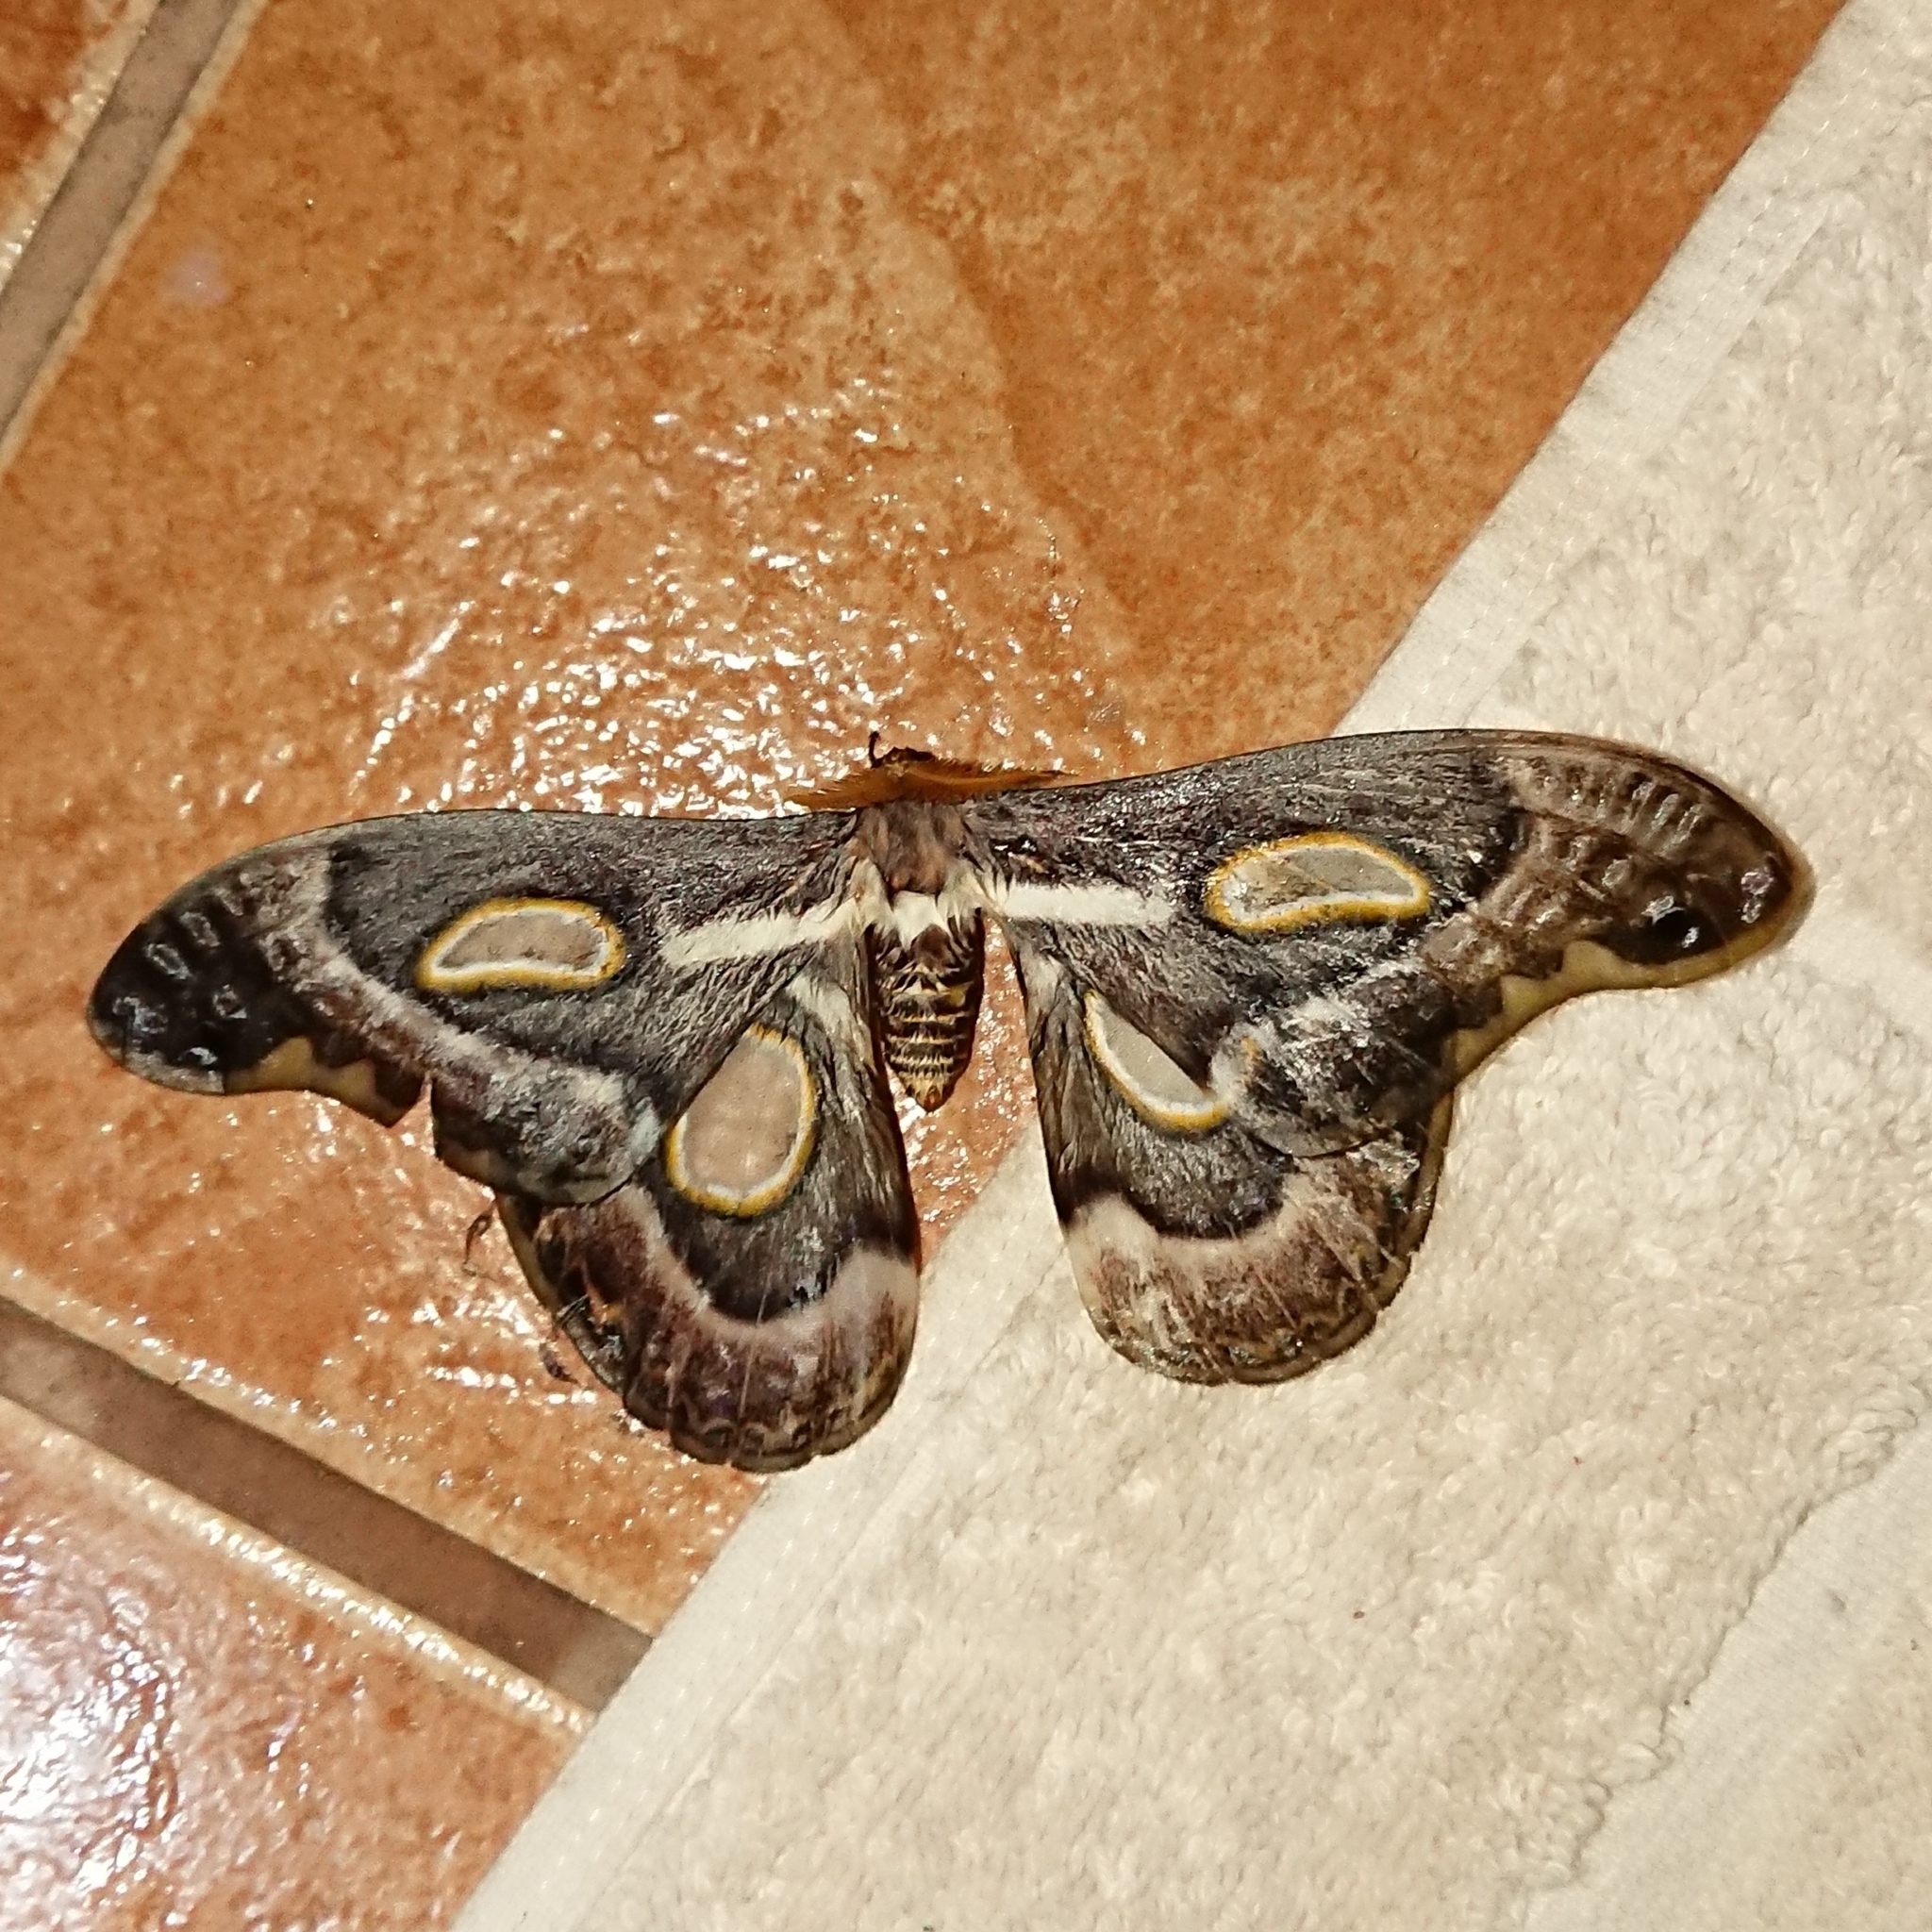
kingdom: Animalia
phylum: Arthropoda
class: Insecta
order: Lepidoptera
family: Saturniidae
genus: Epiphora
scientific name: Epiphora mythimnia
